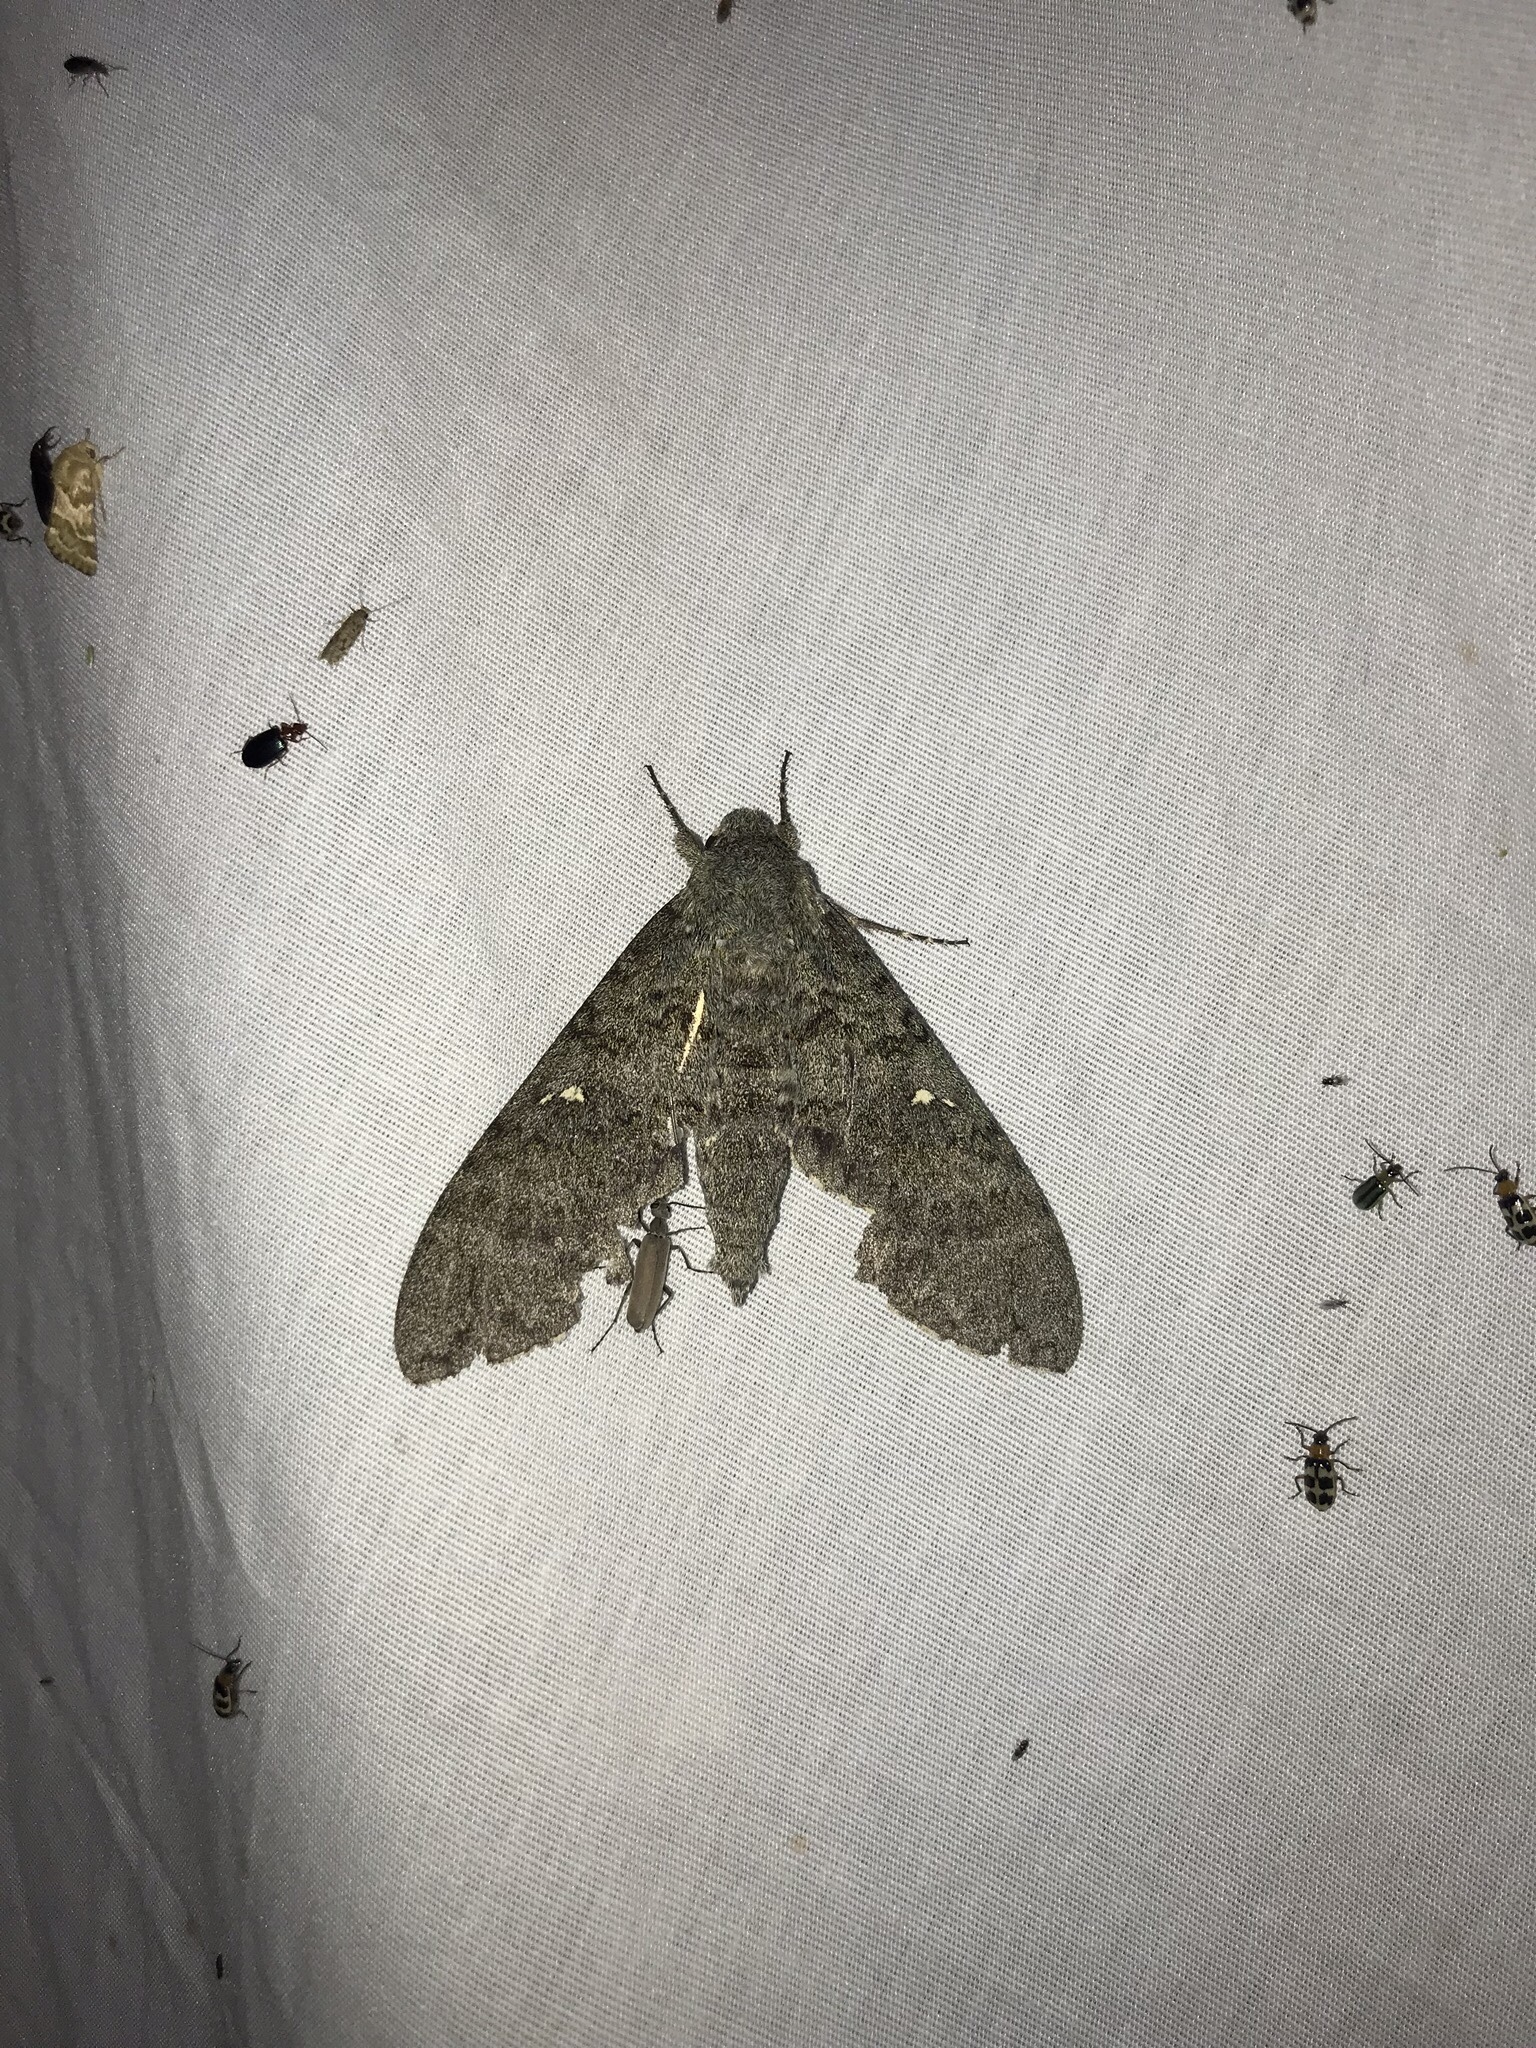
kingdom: Animalia
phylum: Arthropoda
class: Insecta
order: Lepidoptera
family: Sphingidae
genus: Manduca
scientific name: Manduca muscosa
